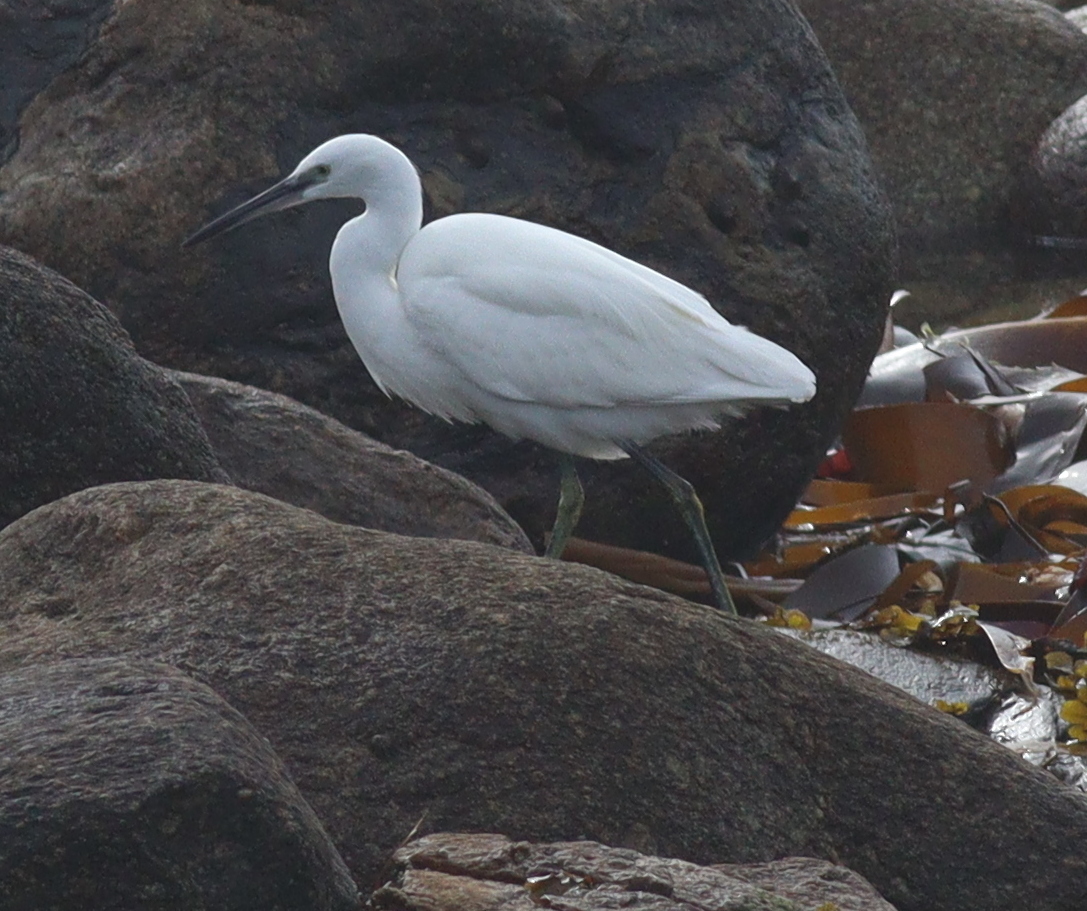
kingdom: Animalia
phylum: Chordata
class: Aves
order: Pelecaniformes
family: Ardeidae
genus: Egretta
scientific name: Egretta garzetta
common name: Little egret
